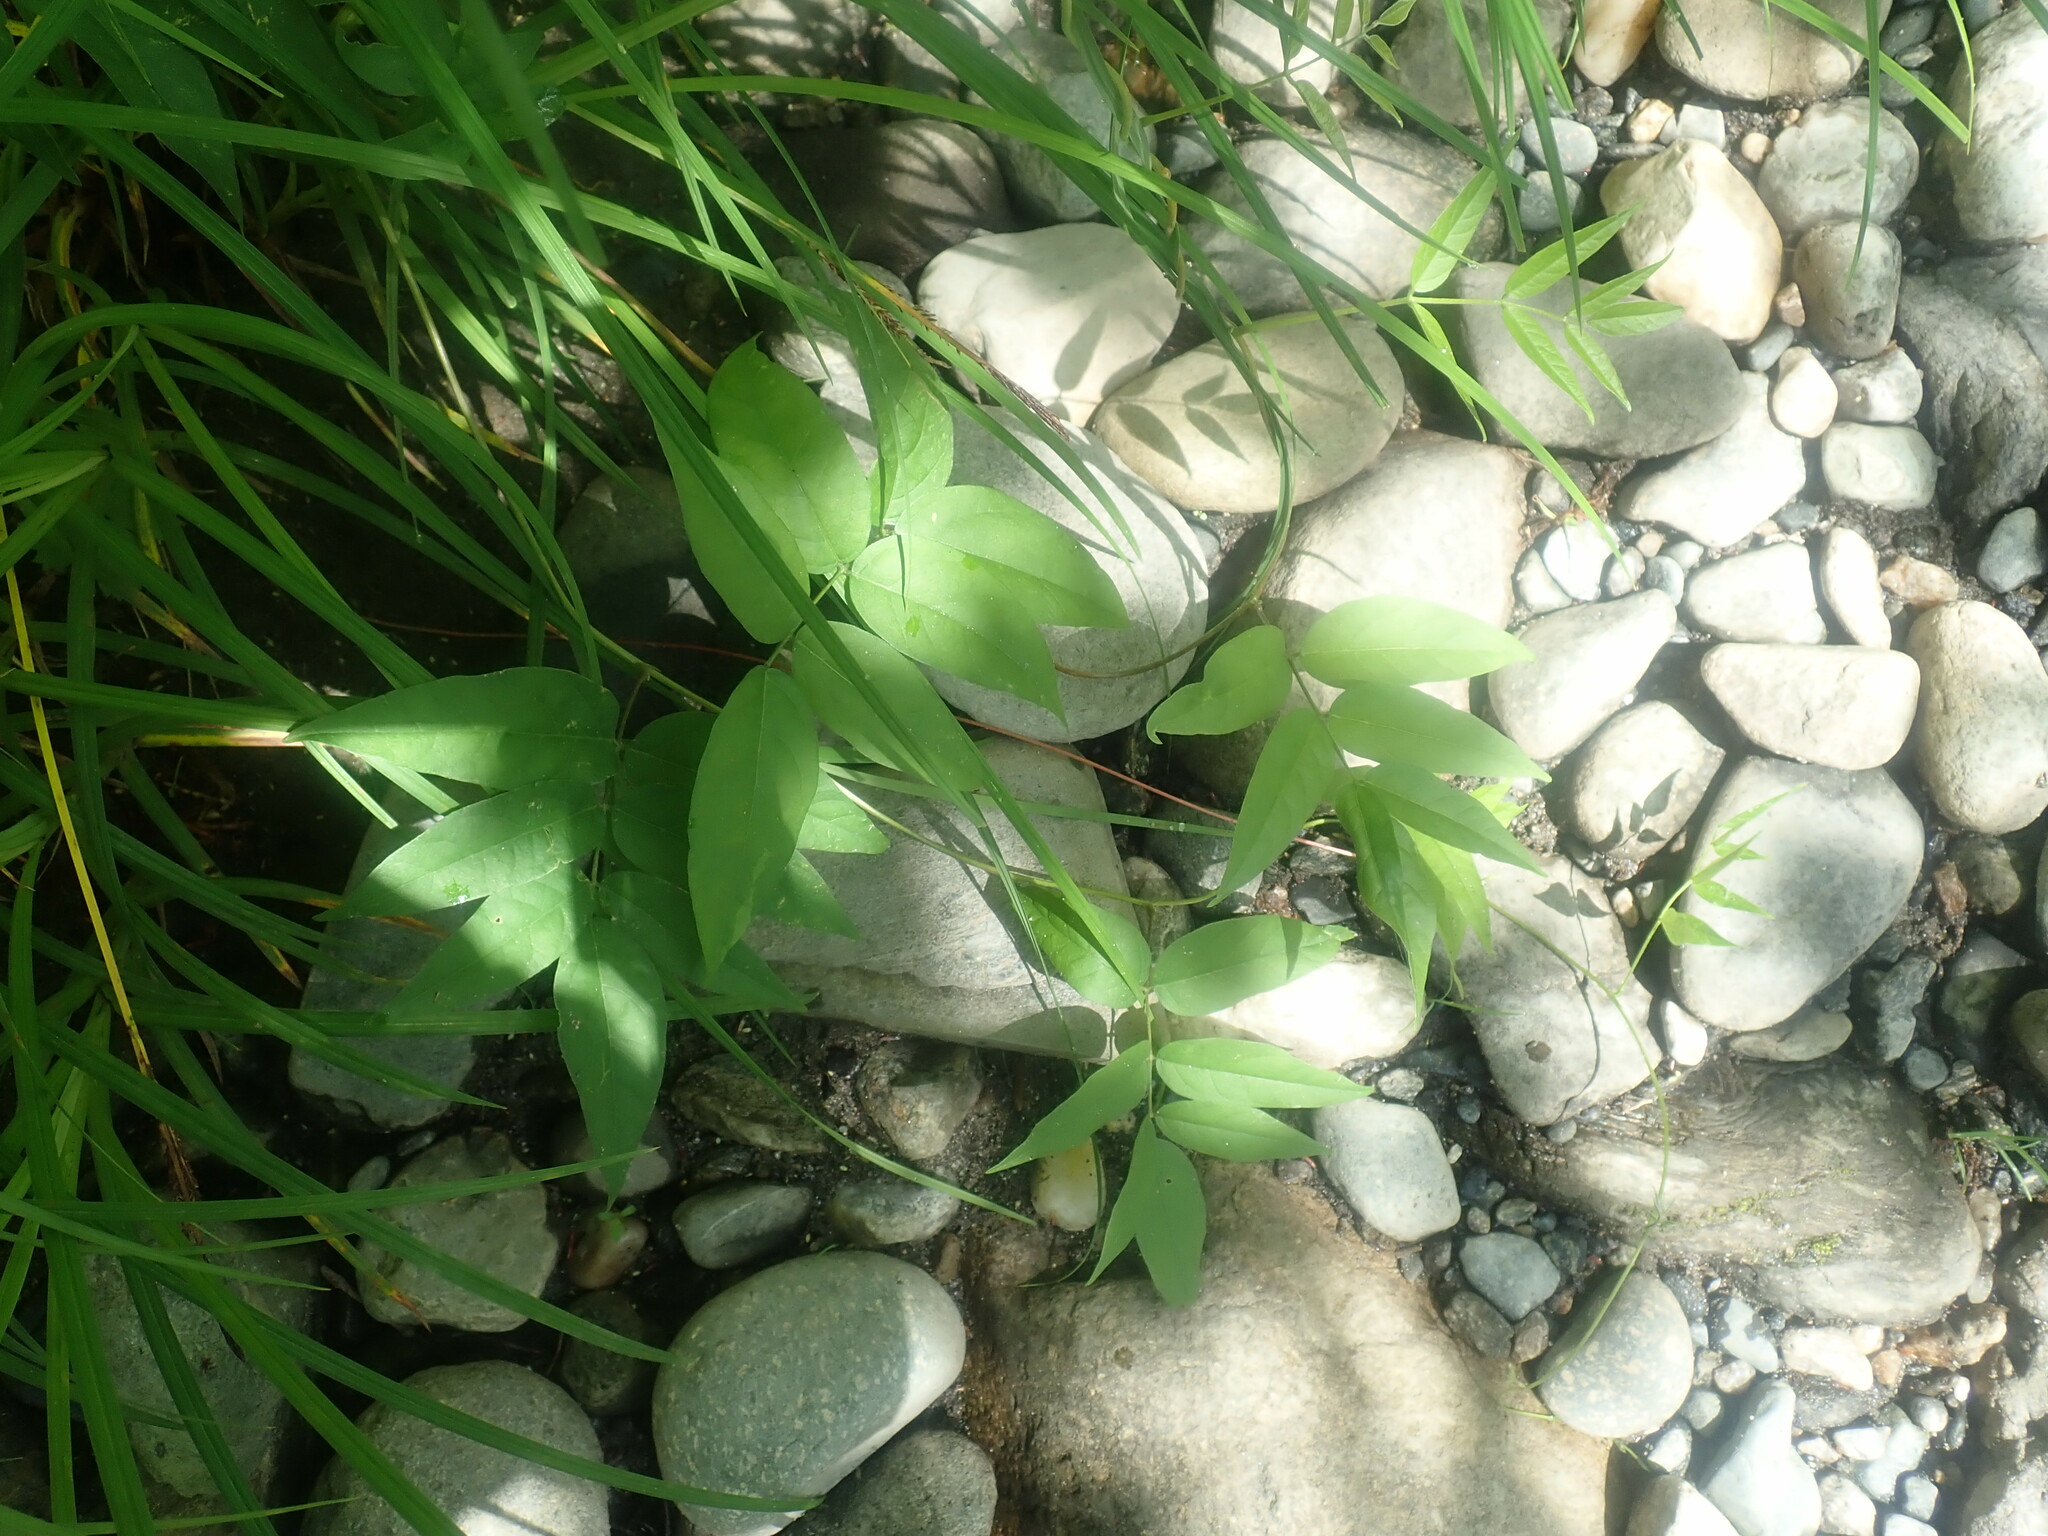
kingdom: Plantae
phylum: Tracheophyta
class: Magnoliopsida
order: Fabales
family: Fabaceae
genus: Apios
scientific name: Apios americana
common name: American potato-bean
